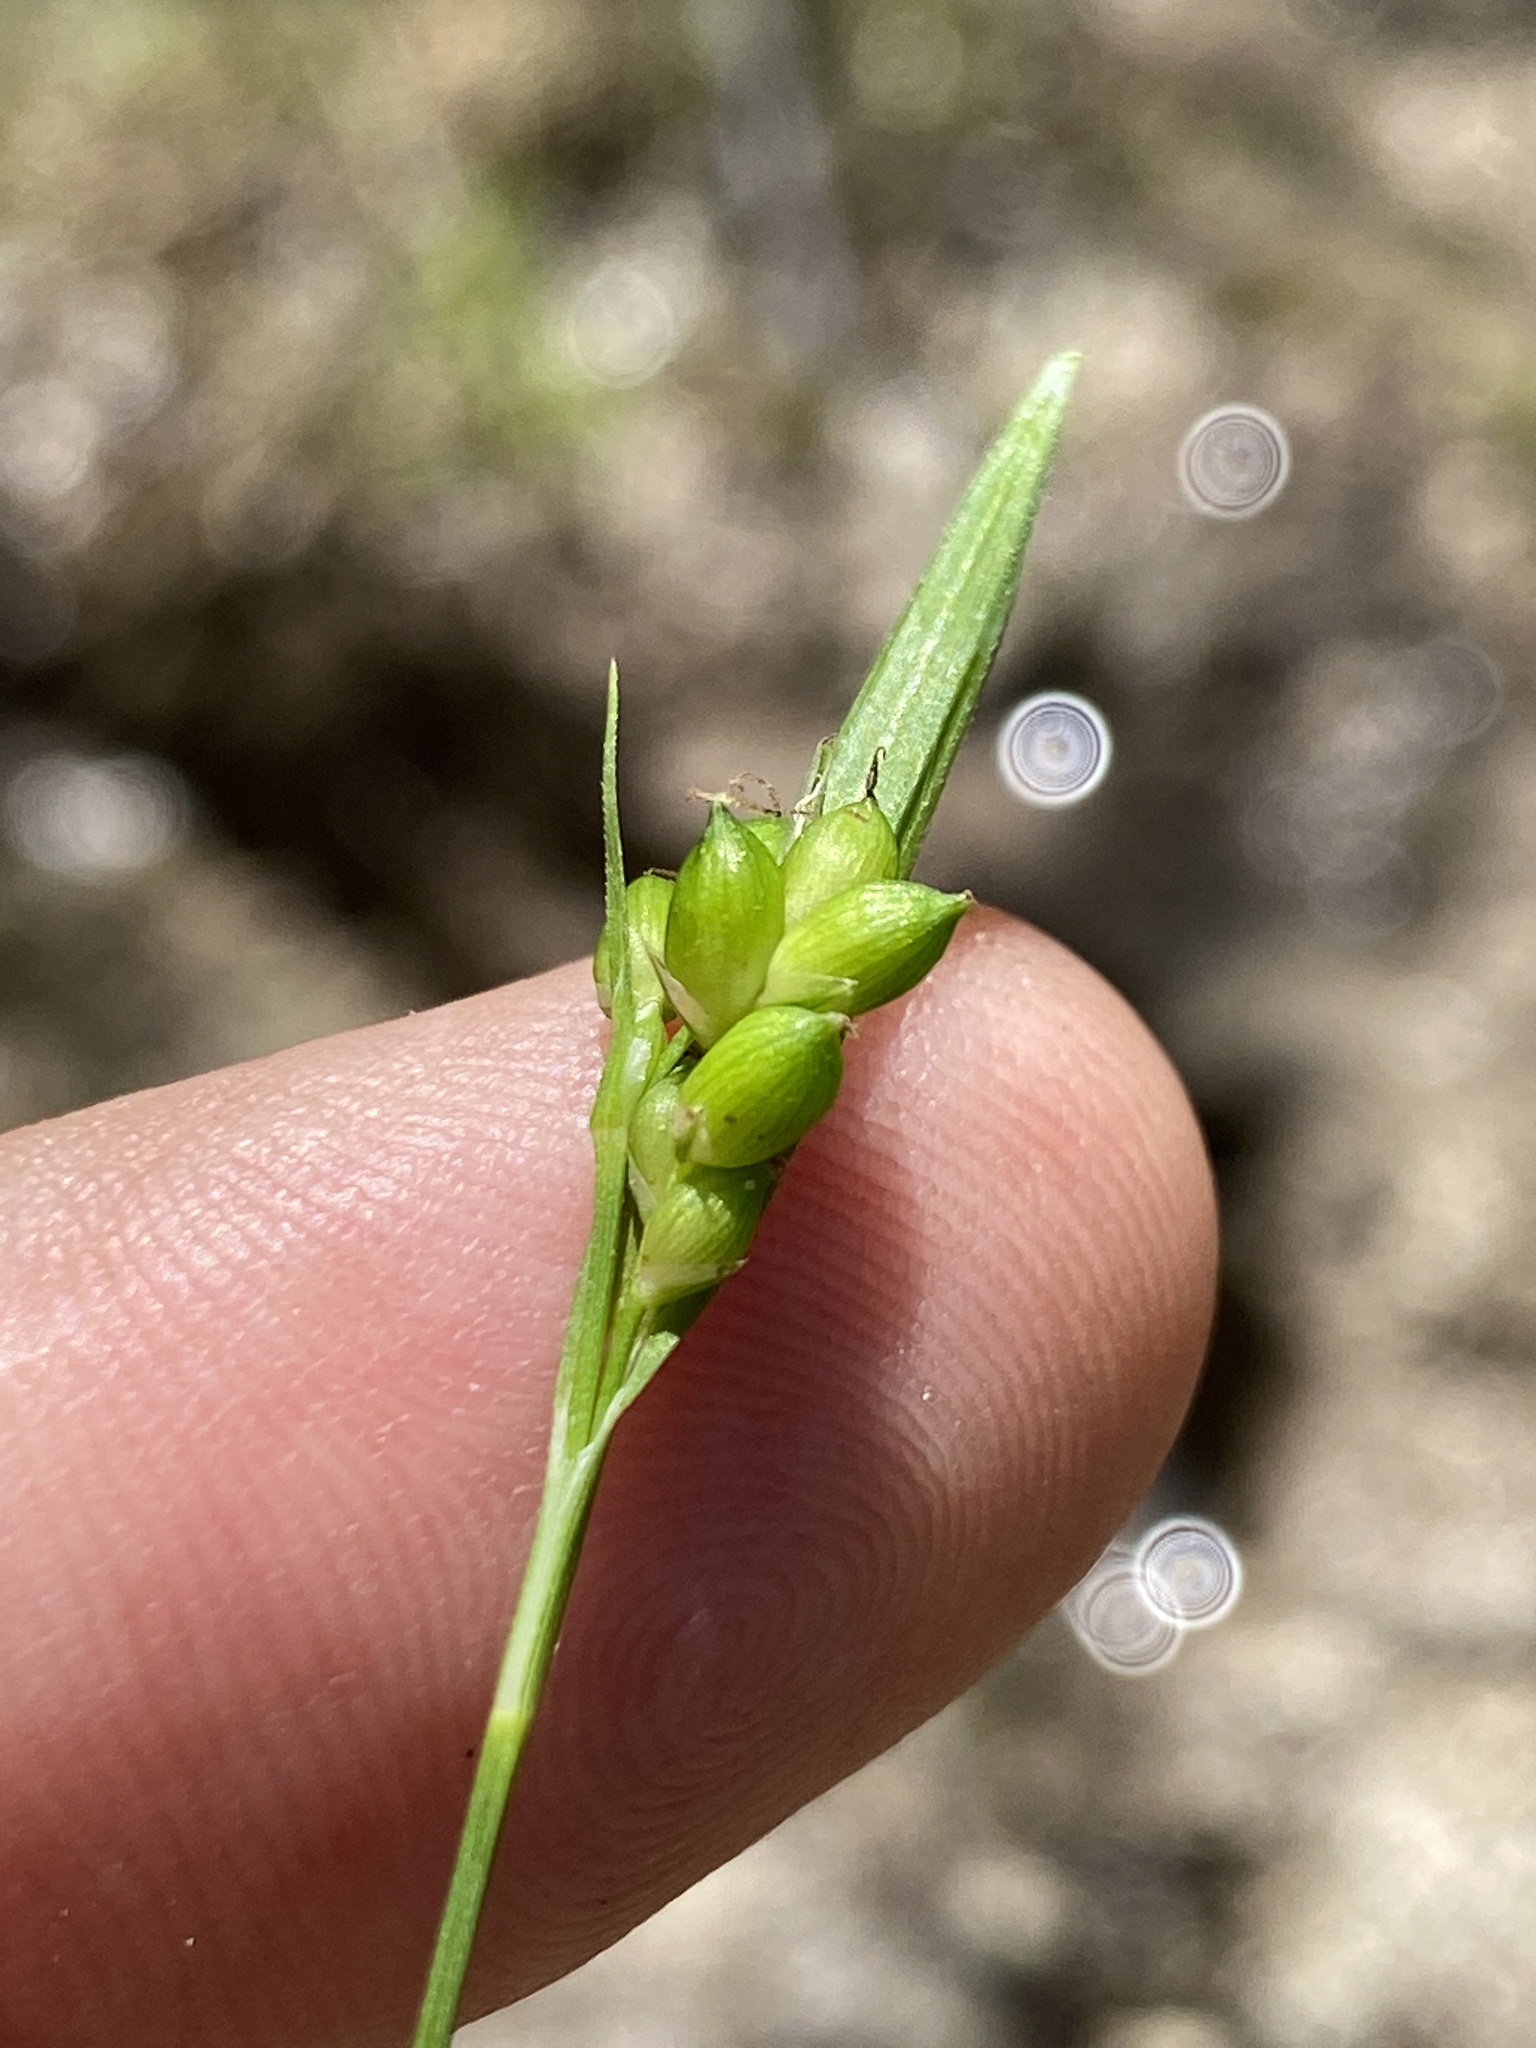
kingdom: Plantae
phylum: Tracheophyta
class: Liliopsida
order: Poales
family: Cyperaceae
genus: Carex
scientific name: Carex gholsonii
